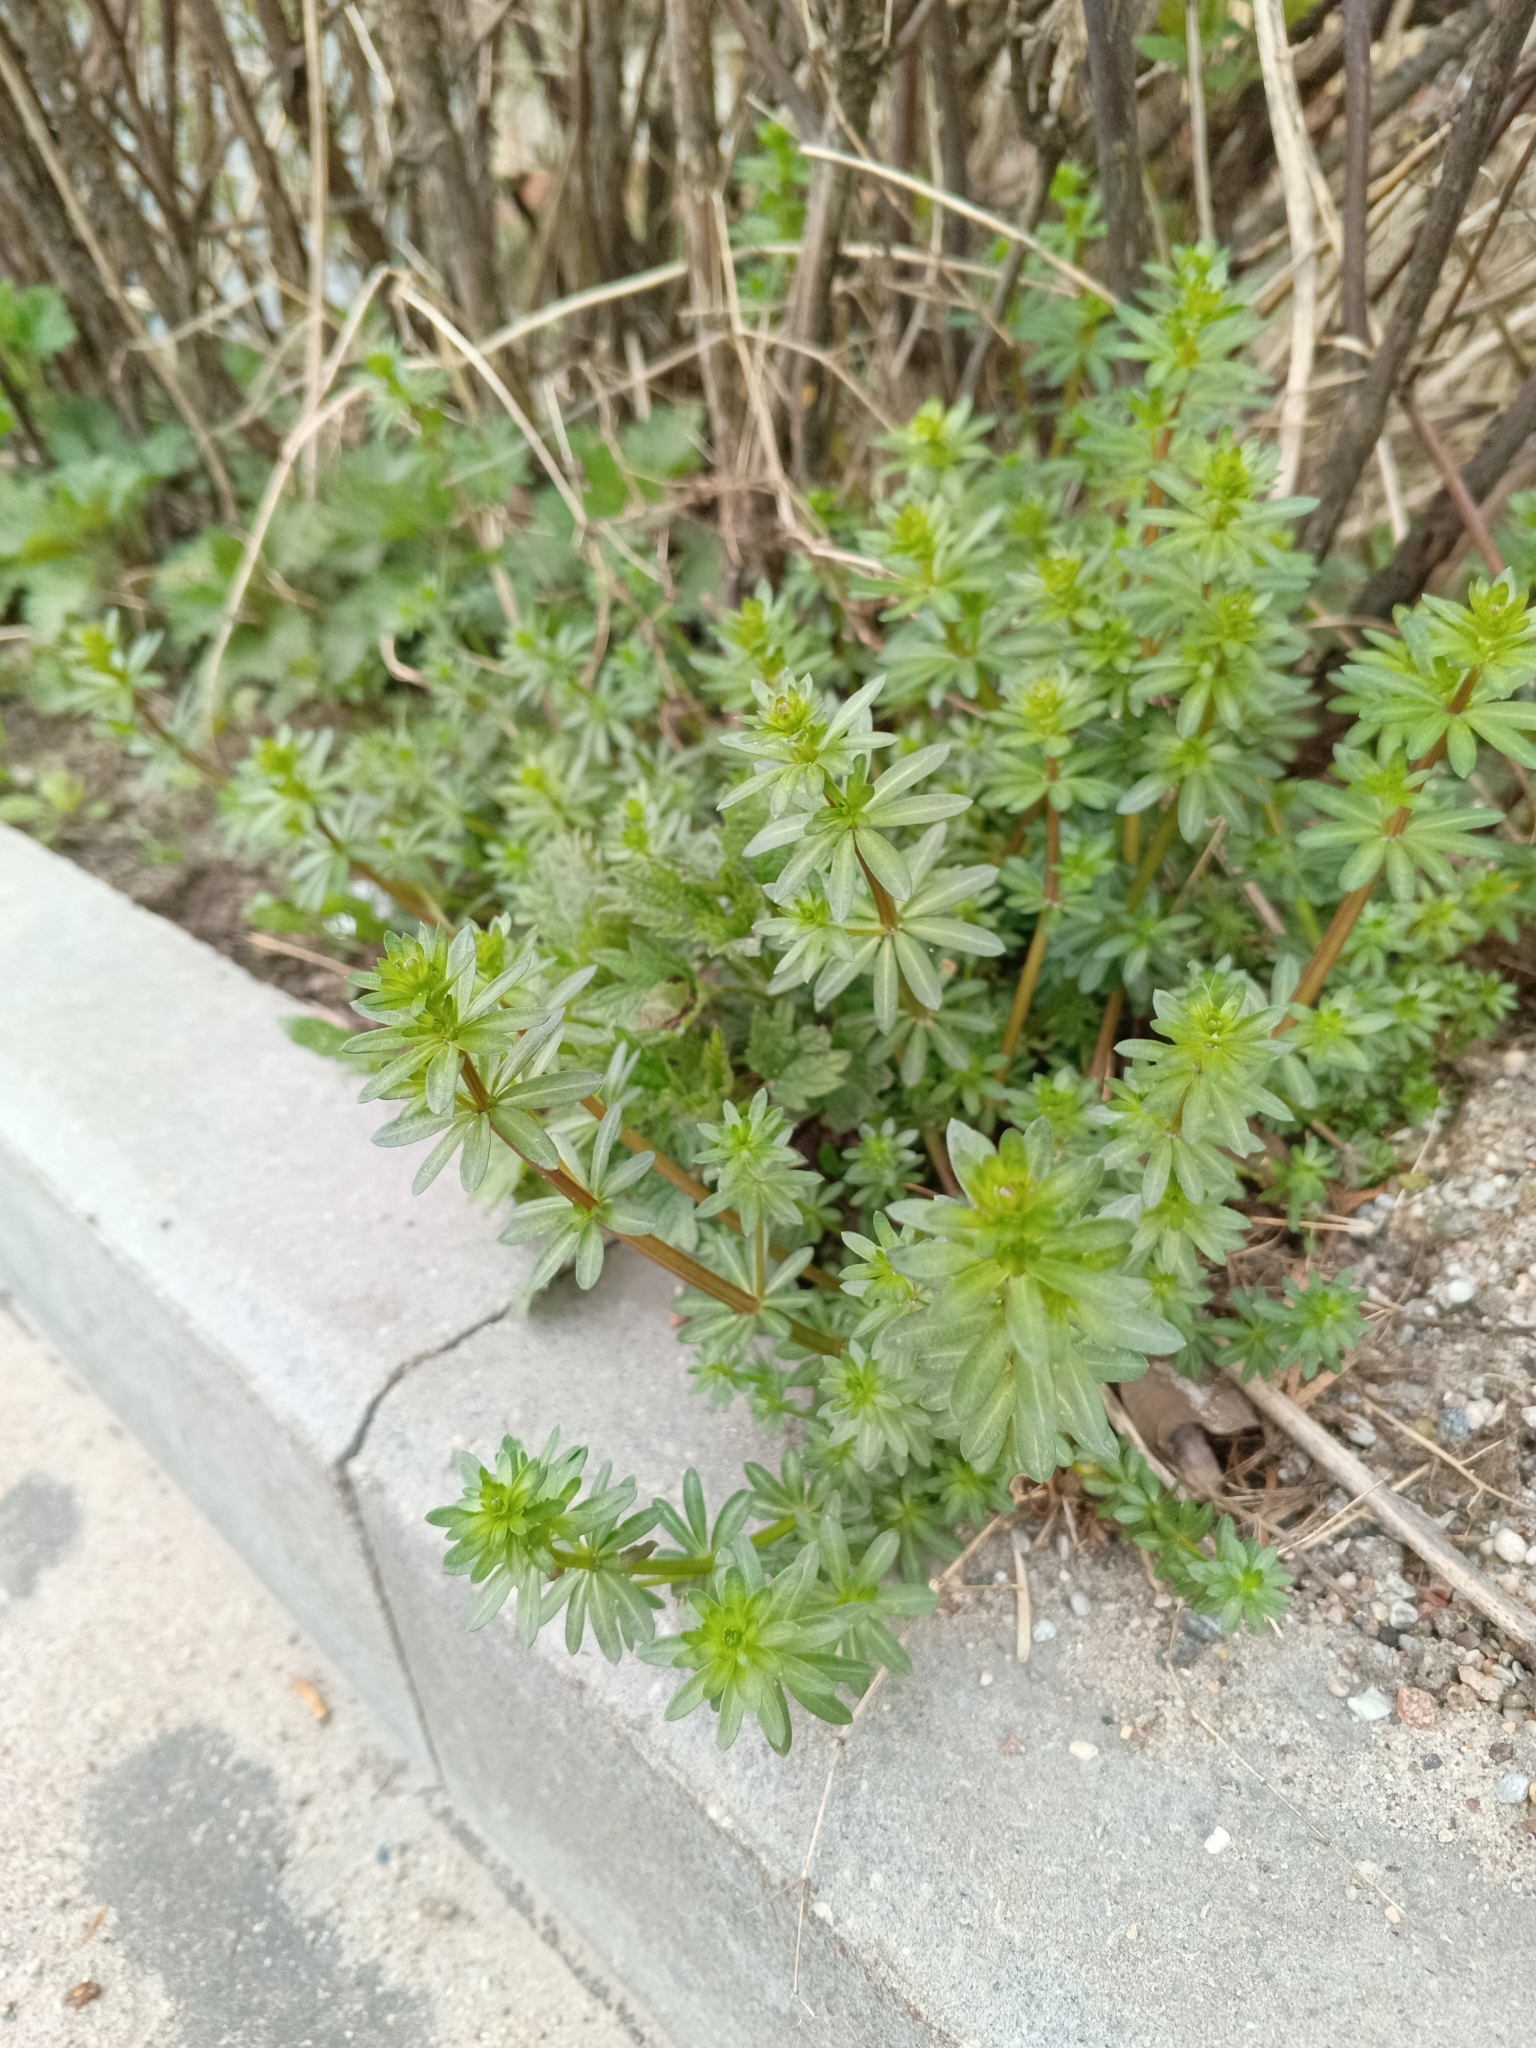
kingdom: Plantae
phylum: Tracheophyta
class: Magnoliopsida
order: Gentianales
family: Rubiaceae
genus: Galium
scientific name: Galium mollugo
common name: Hedge bedstraw
